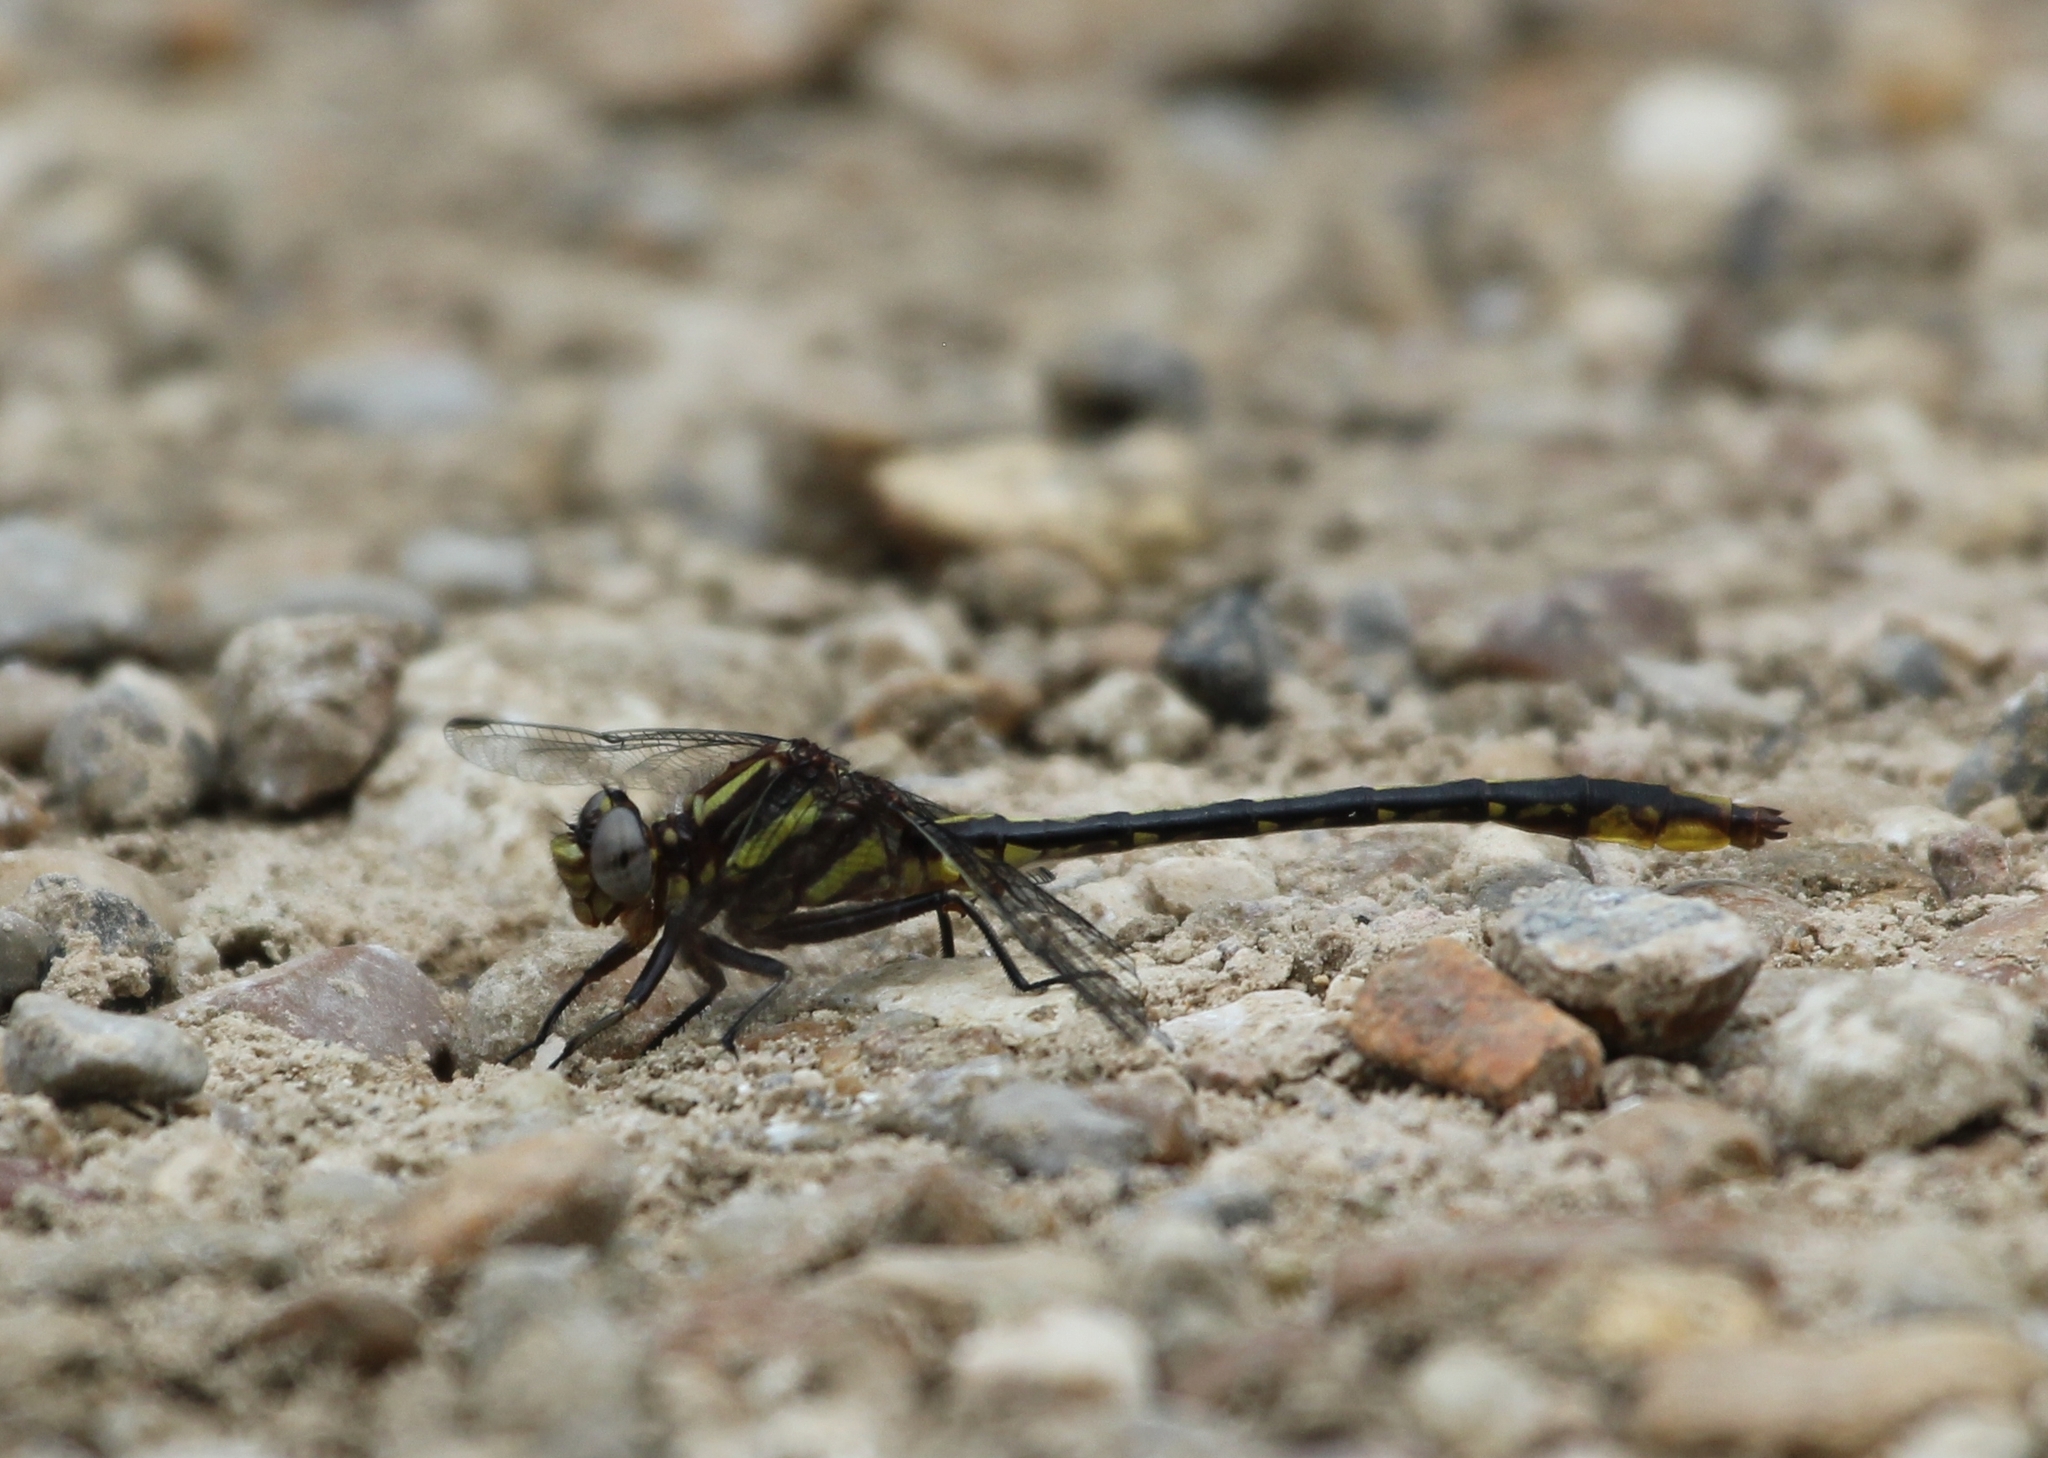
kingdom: Animalia
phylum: Arthropoda
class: Insecta
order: Odonata
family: Gomphidae
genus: Phanogomphus
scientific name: Phanogomphus exilis
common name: Lancet clubtail
